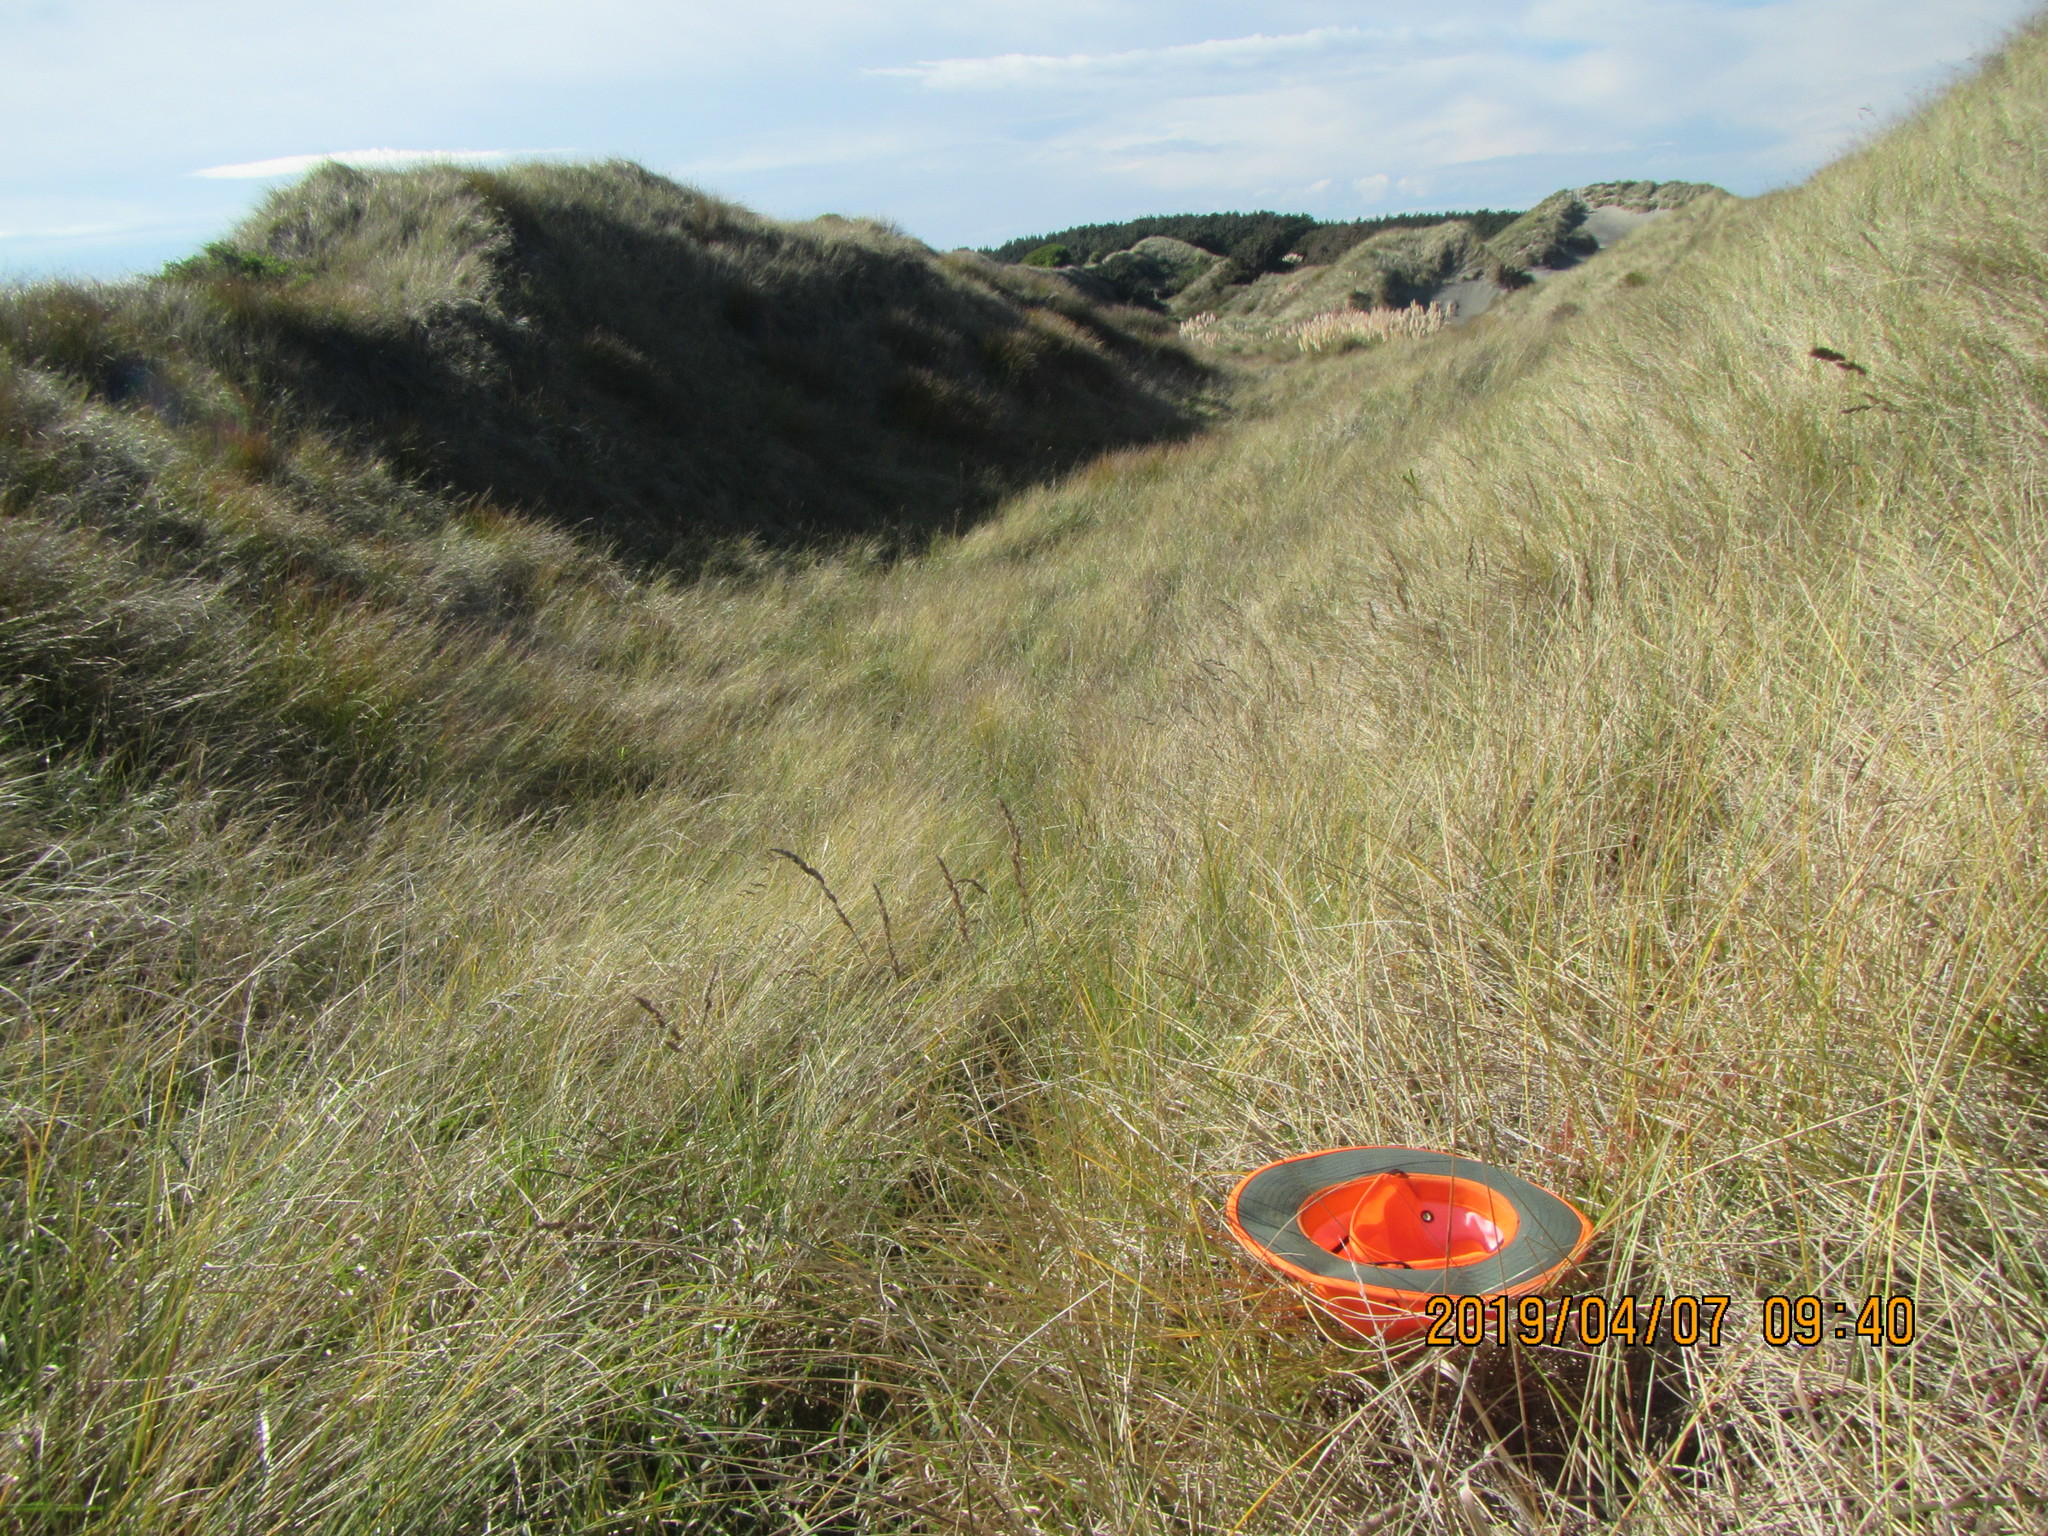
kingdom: Plantae
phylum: Tracheophyta
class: Magnoliopsida
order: Caryophyllales
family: Polygonaceae
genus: Rumex
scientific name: Rumex sagittatus
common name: Climbing dock
